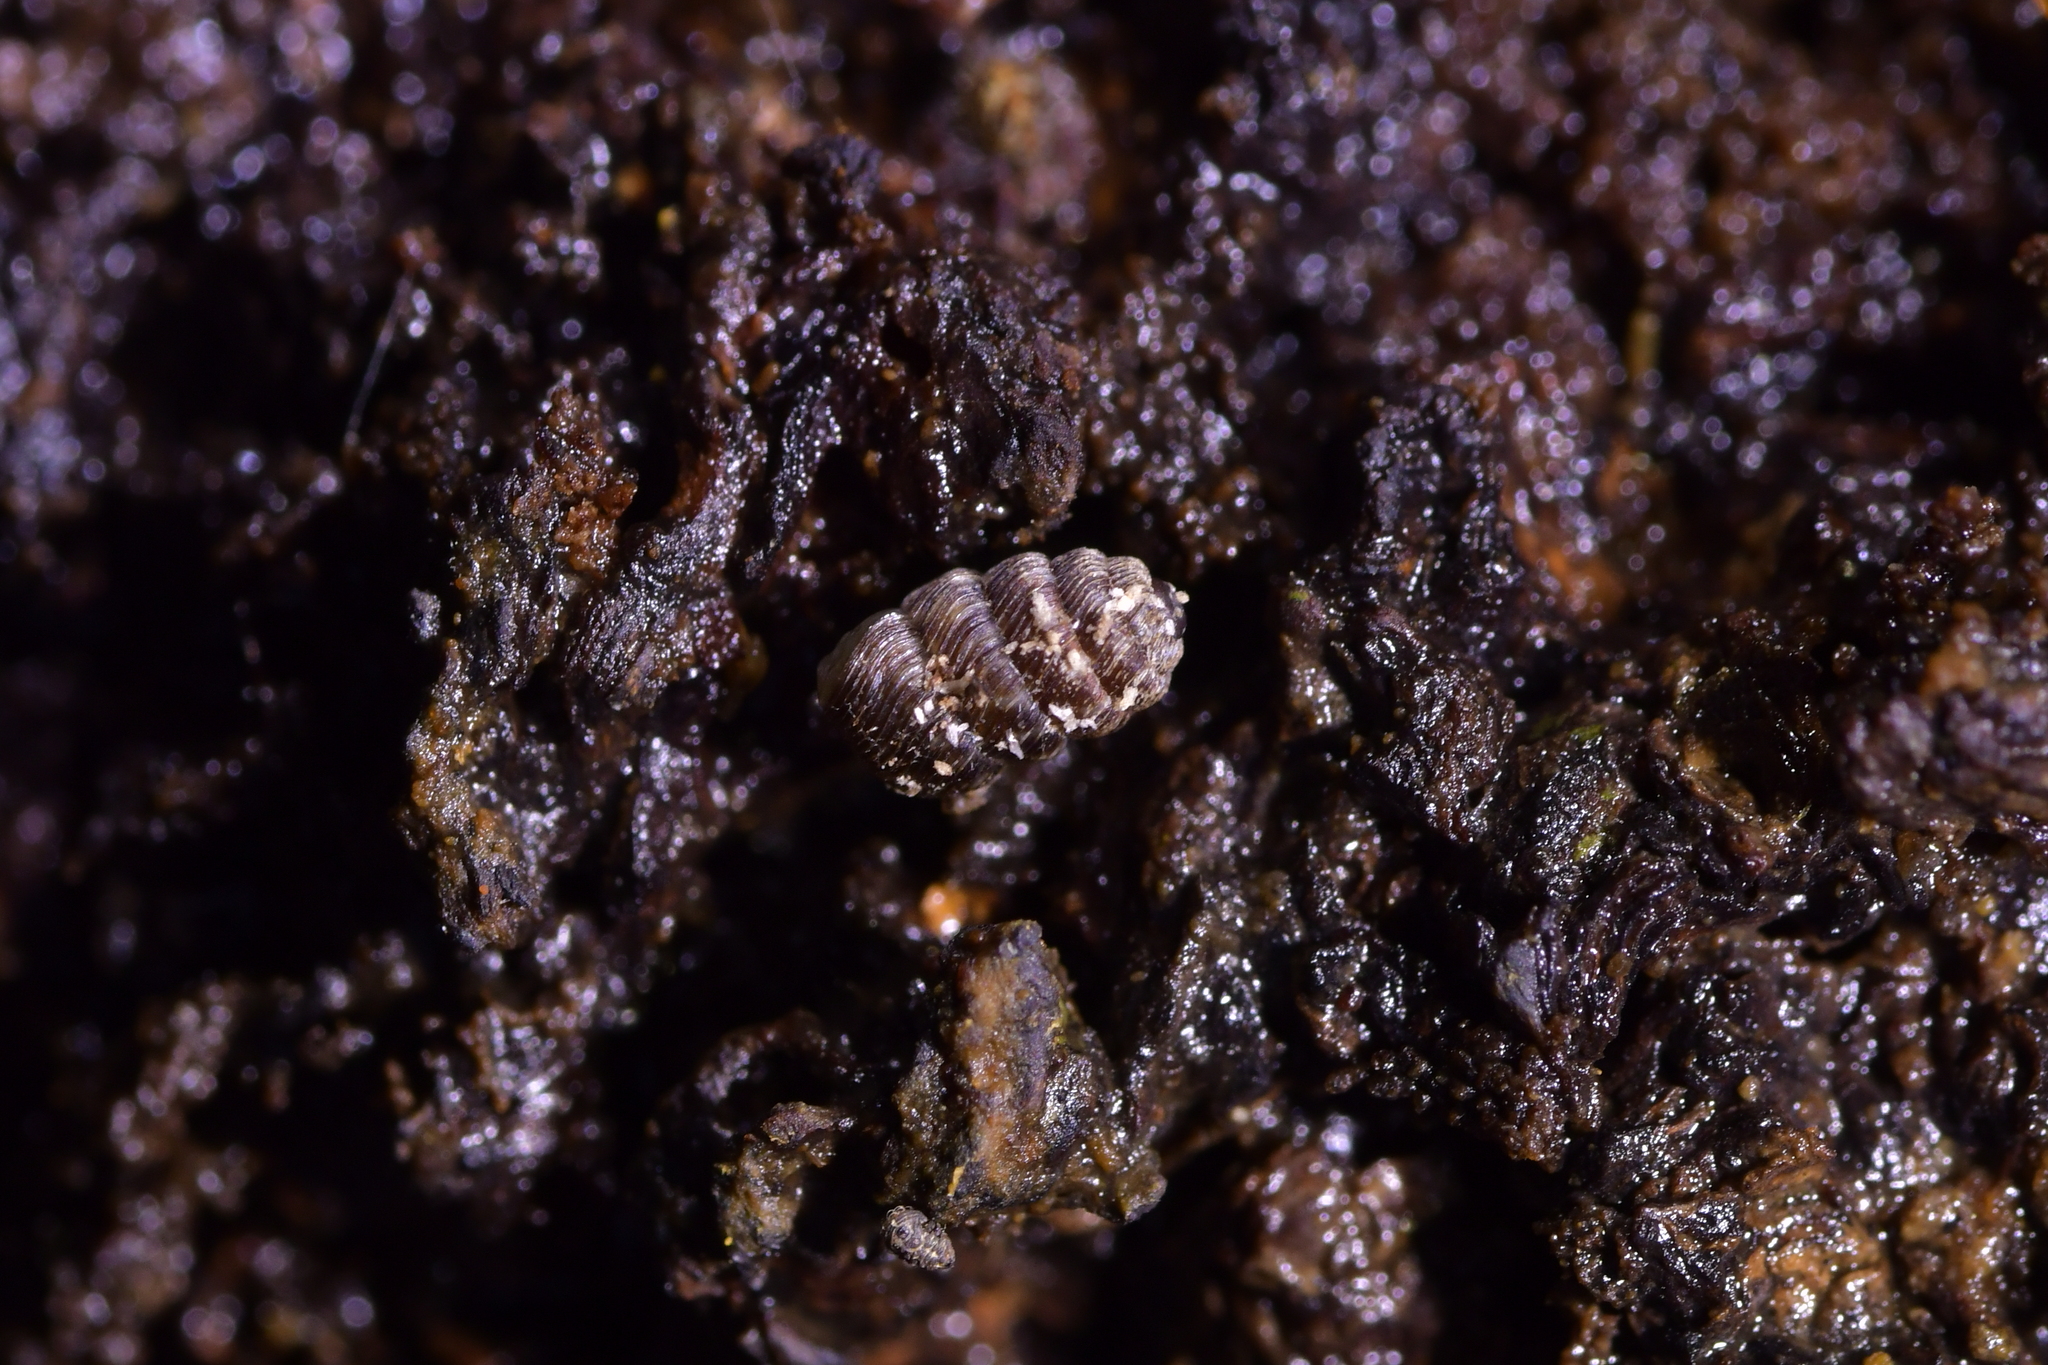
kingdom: Animalia
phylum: Mollusca
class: Gastropoda
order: Stylommatophora
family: Charopidae
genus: Phenacharopa
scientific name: Phenacharopa novoseelandica
